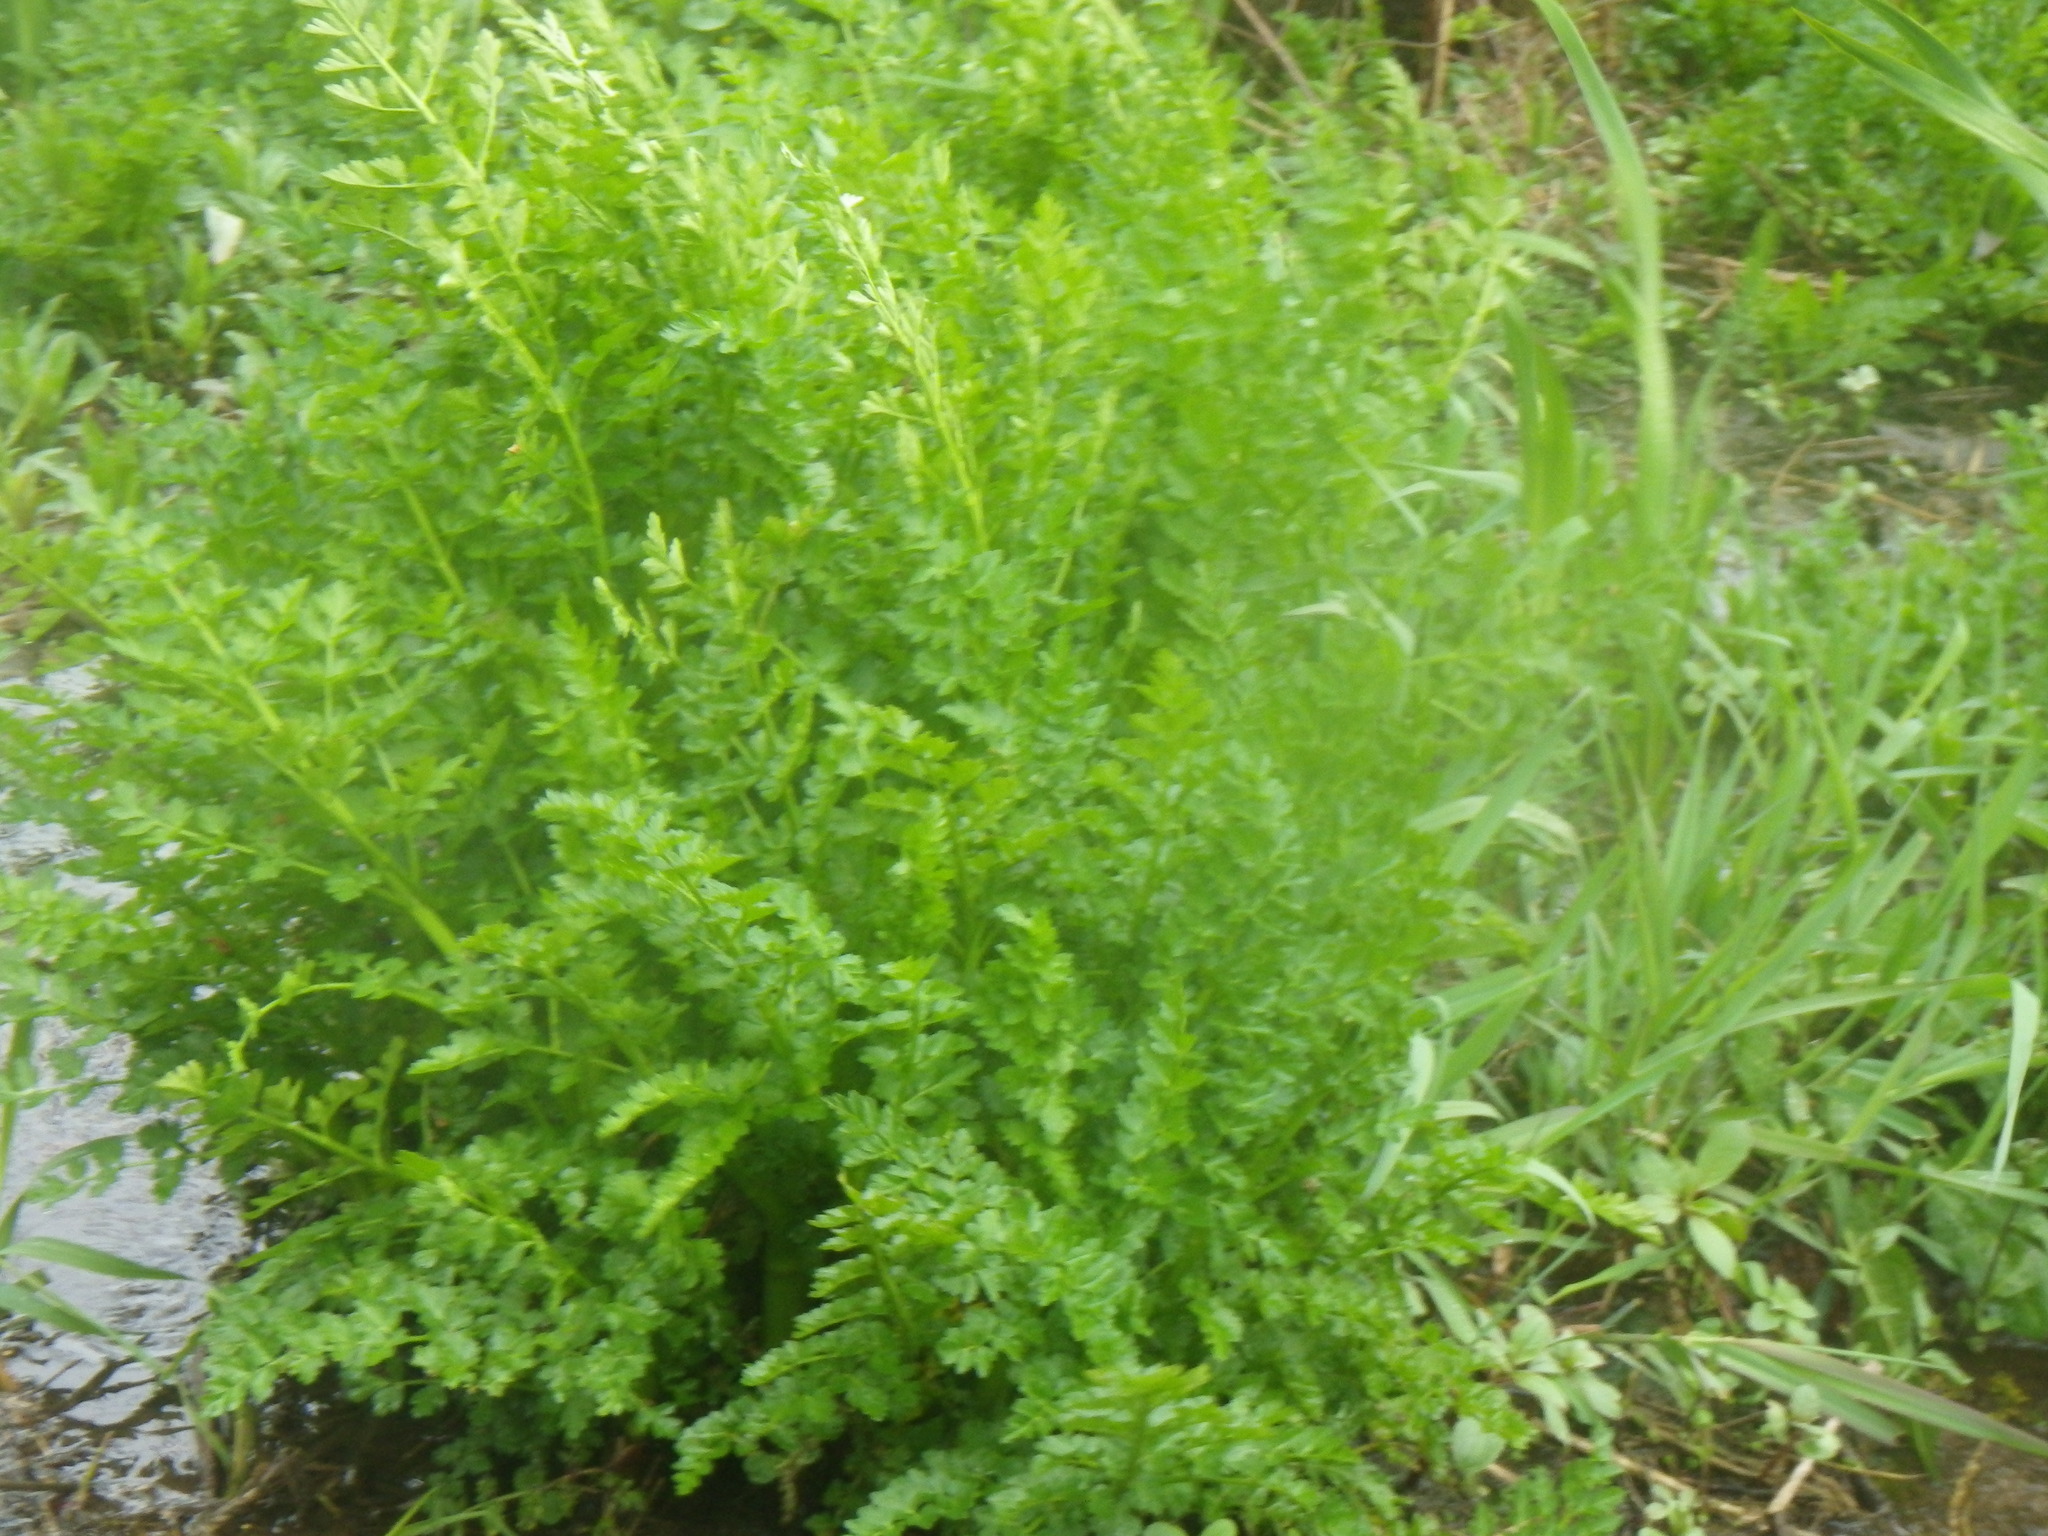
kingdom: Plantae
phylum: Tracheophyta
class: Magnoliopsida
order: Apiales
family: Apiaceae
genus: Oenanthe
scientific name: Oenanthe crocata
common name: Hemlock water-dropwort
